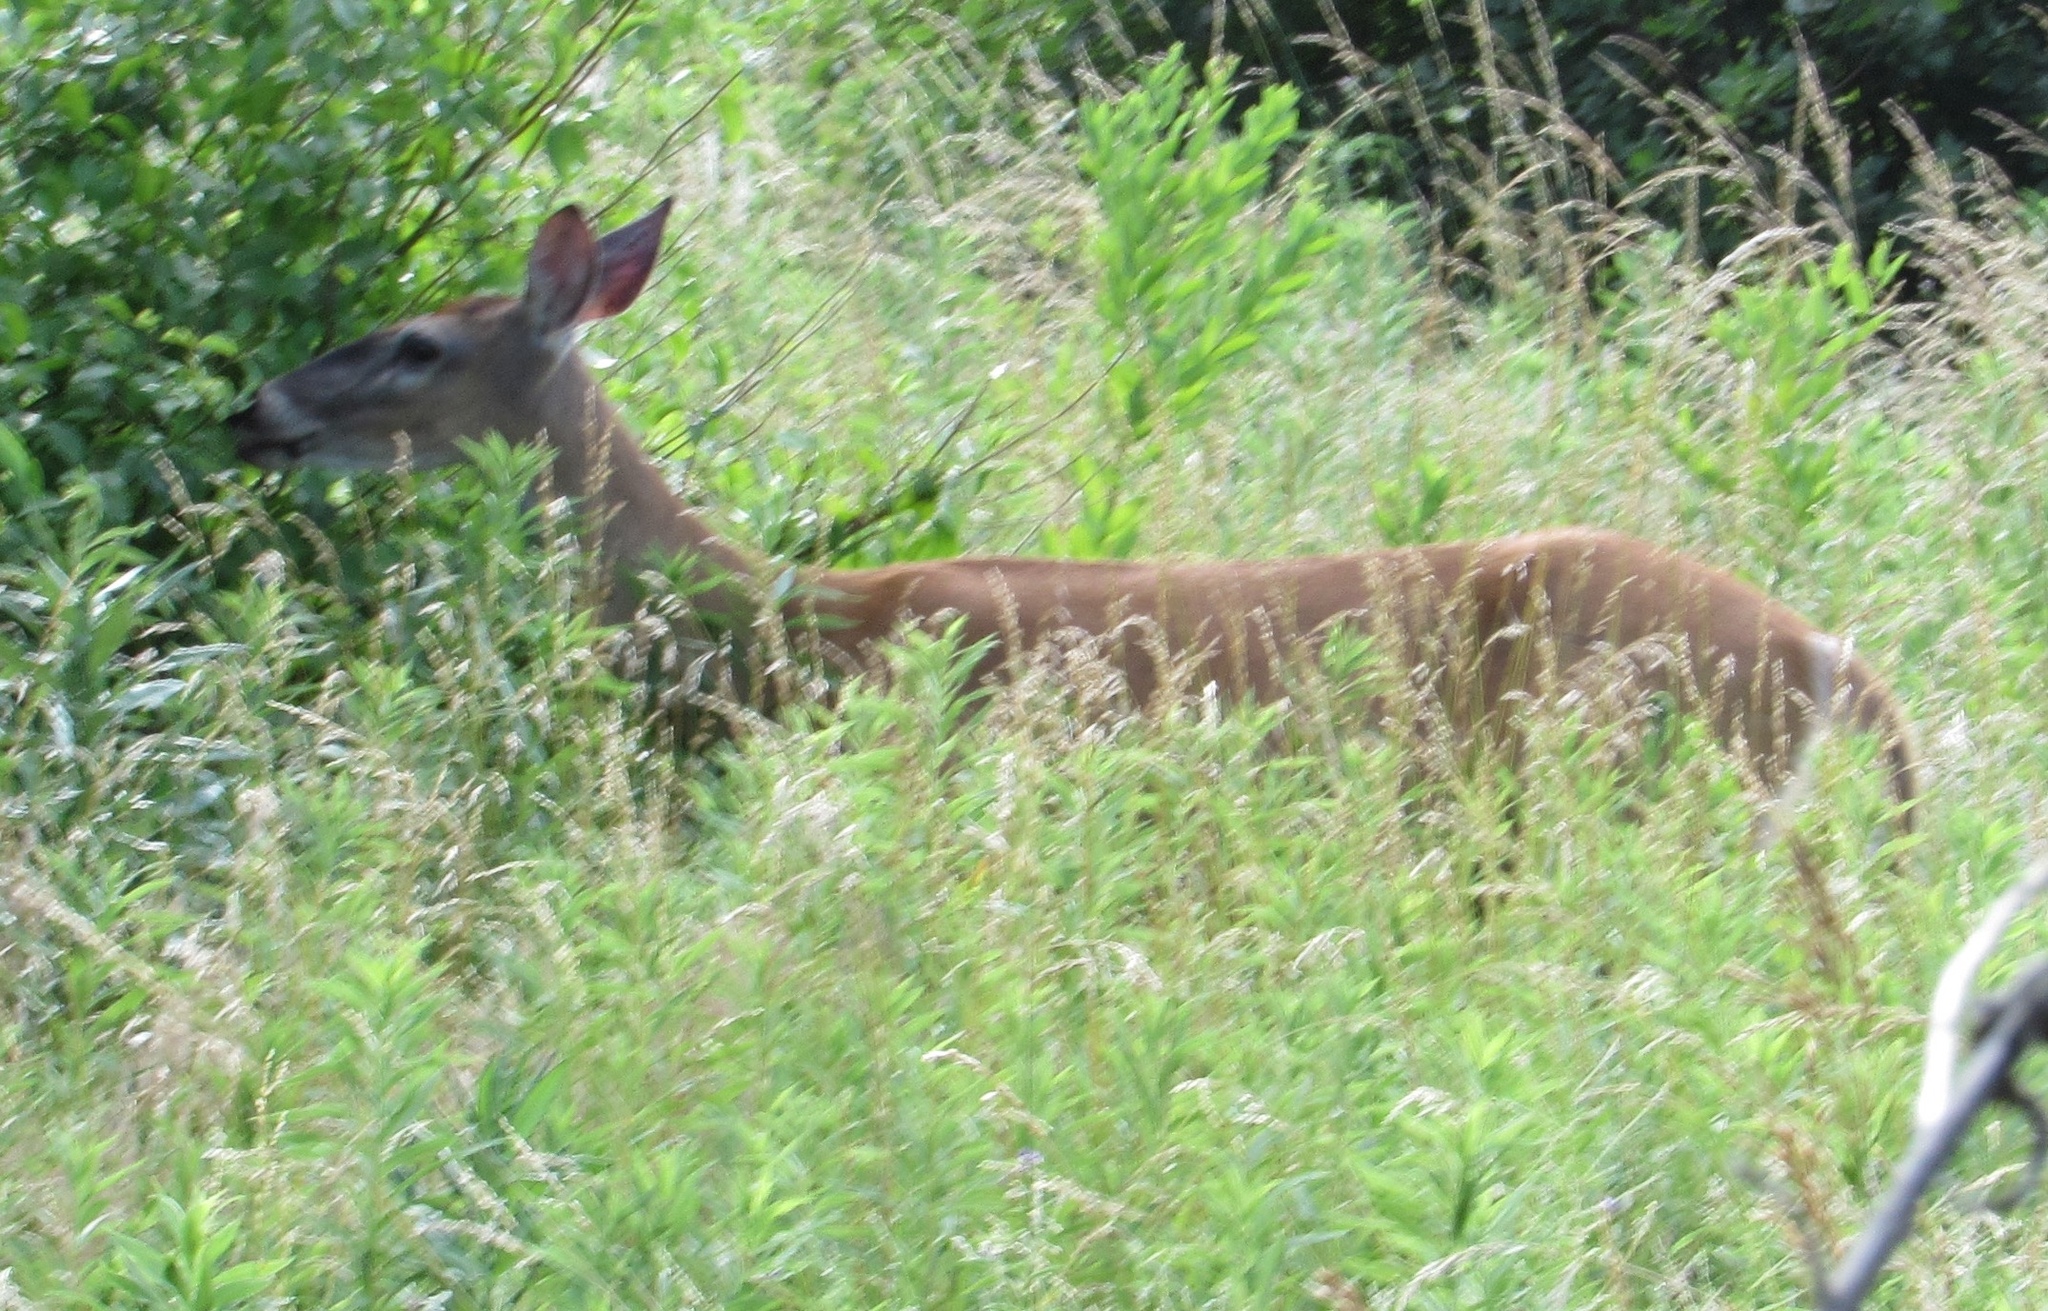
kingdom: Animalia
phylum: Chordata
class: Mammalia
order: Artiodactyla
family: Cervidae
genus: Odocoileus
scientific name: Odocoileus virginianus
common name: White-tailed deer
